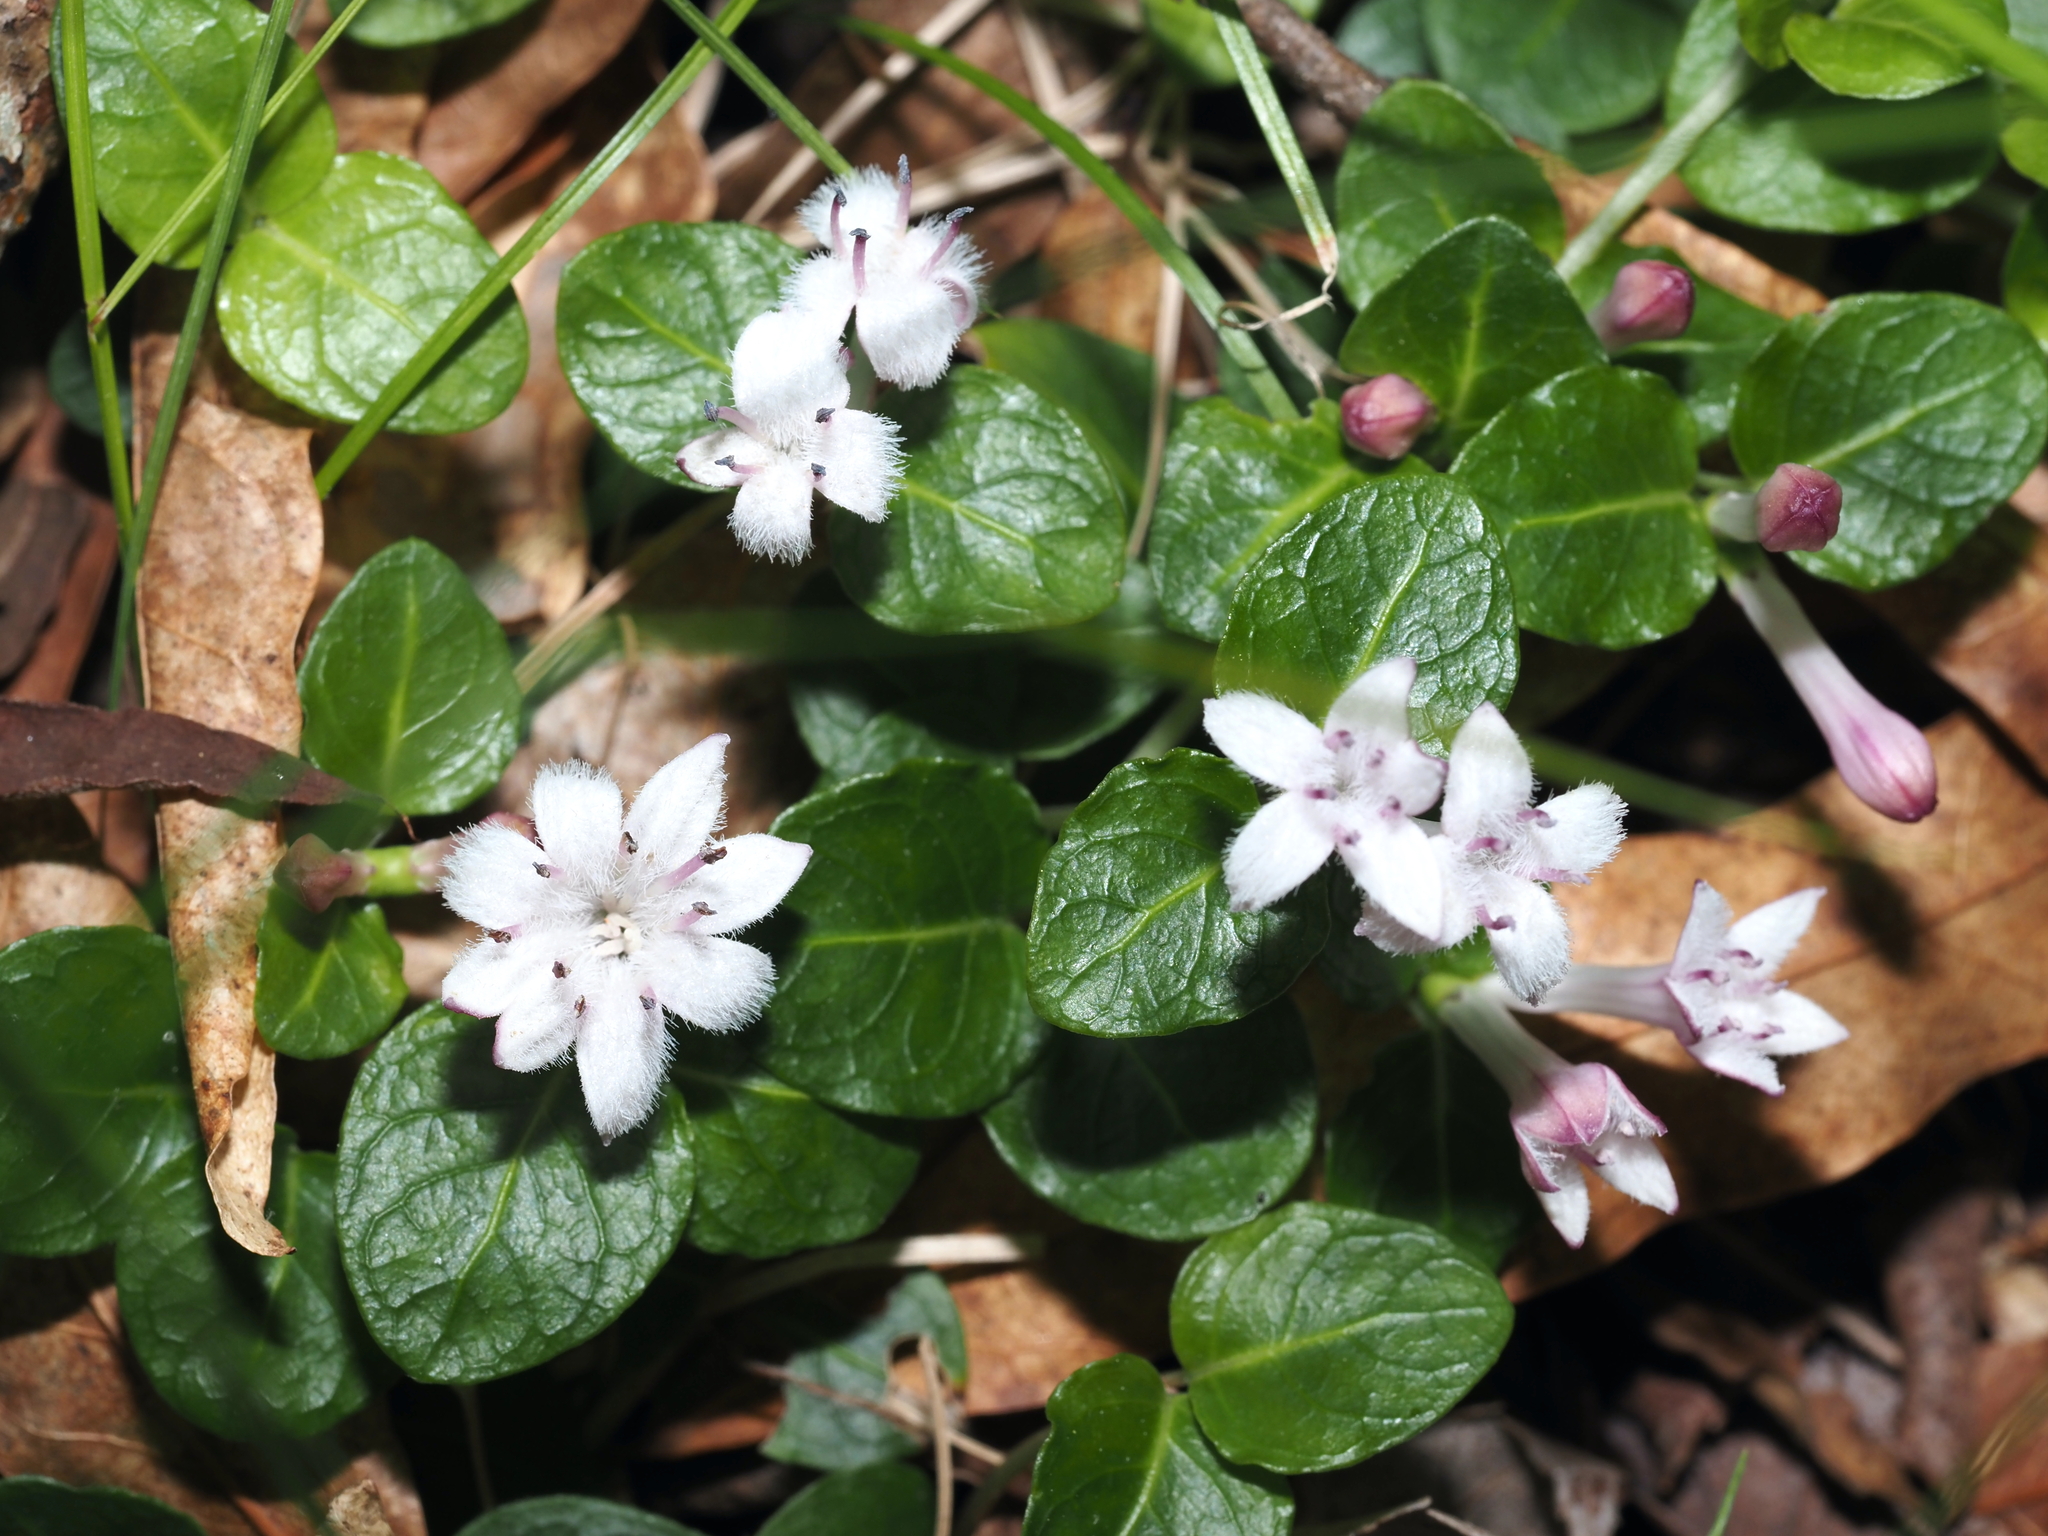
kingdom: Plantae
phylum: Tracheophyta
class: Magnoliopsida
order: Gentianales
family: Rubiaceae
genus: Mitchella
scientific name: Mitchella repens
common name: Partridge-berry
